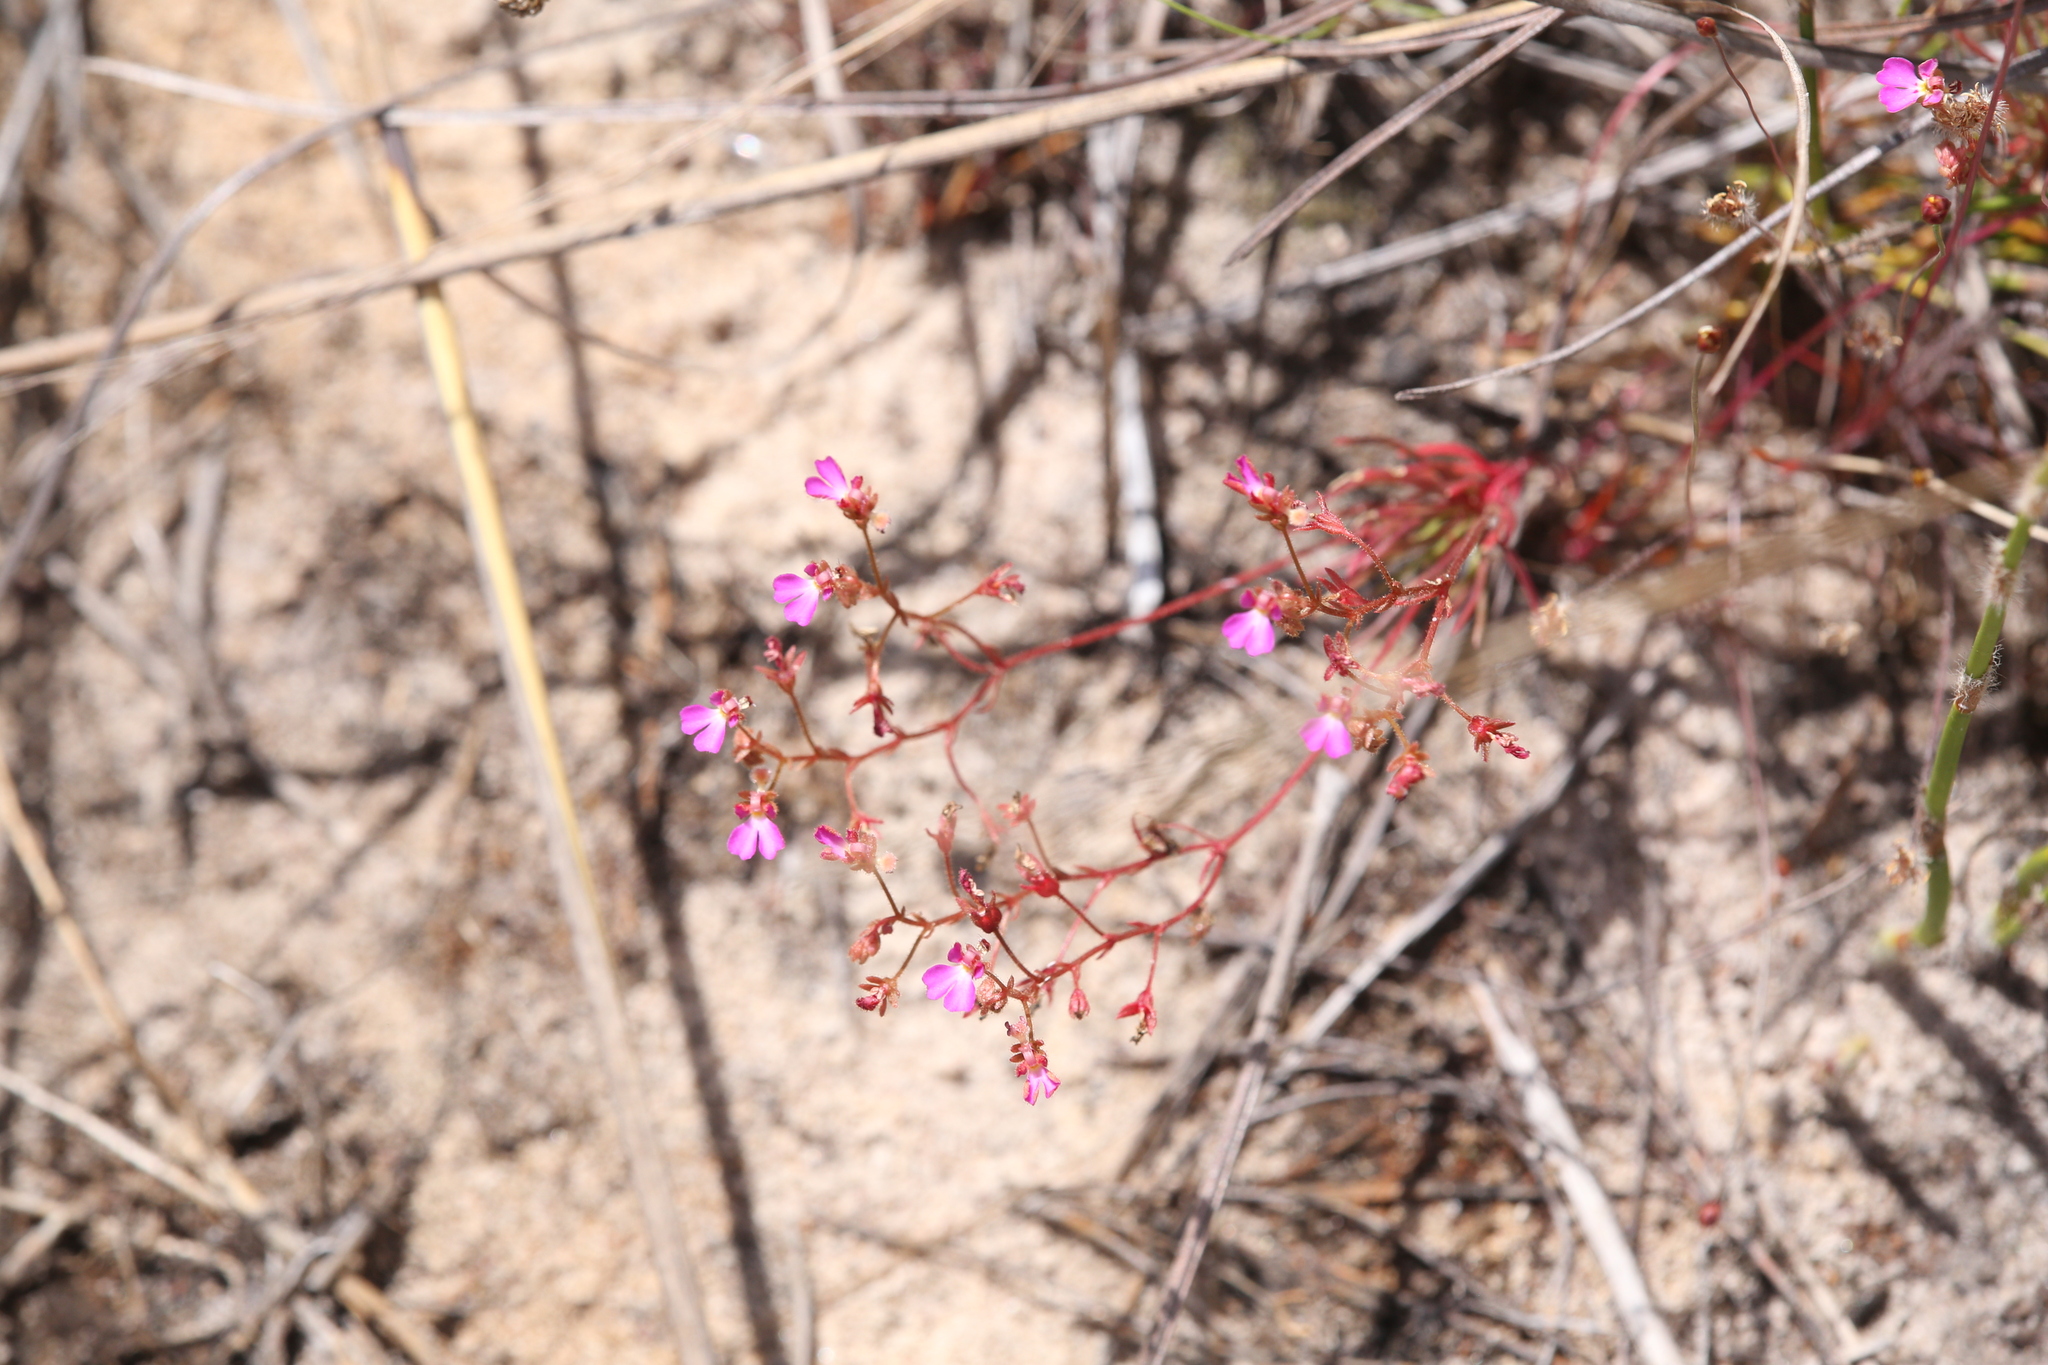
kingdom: Plantae
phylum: Tracheophyta
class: Magnoliopsida
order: Asterales
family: Stylidiaceae
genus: Stylidium
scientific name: Stylidium turbinatum
